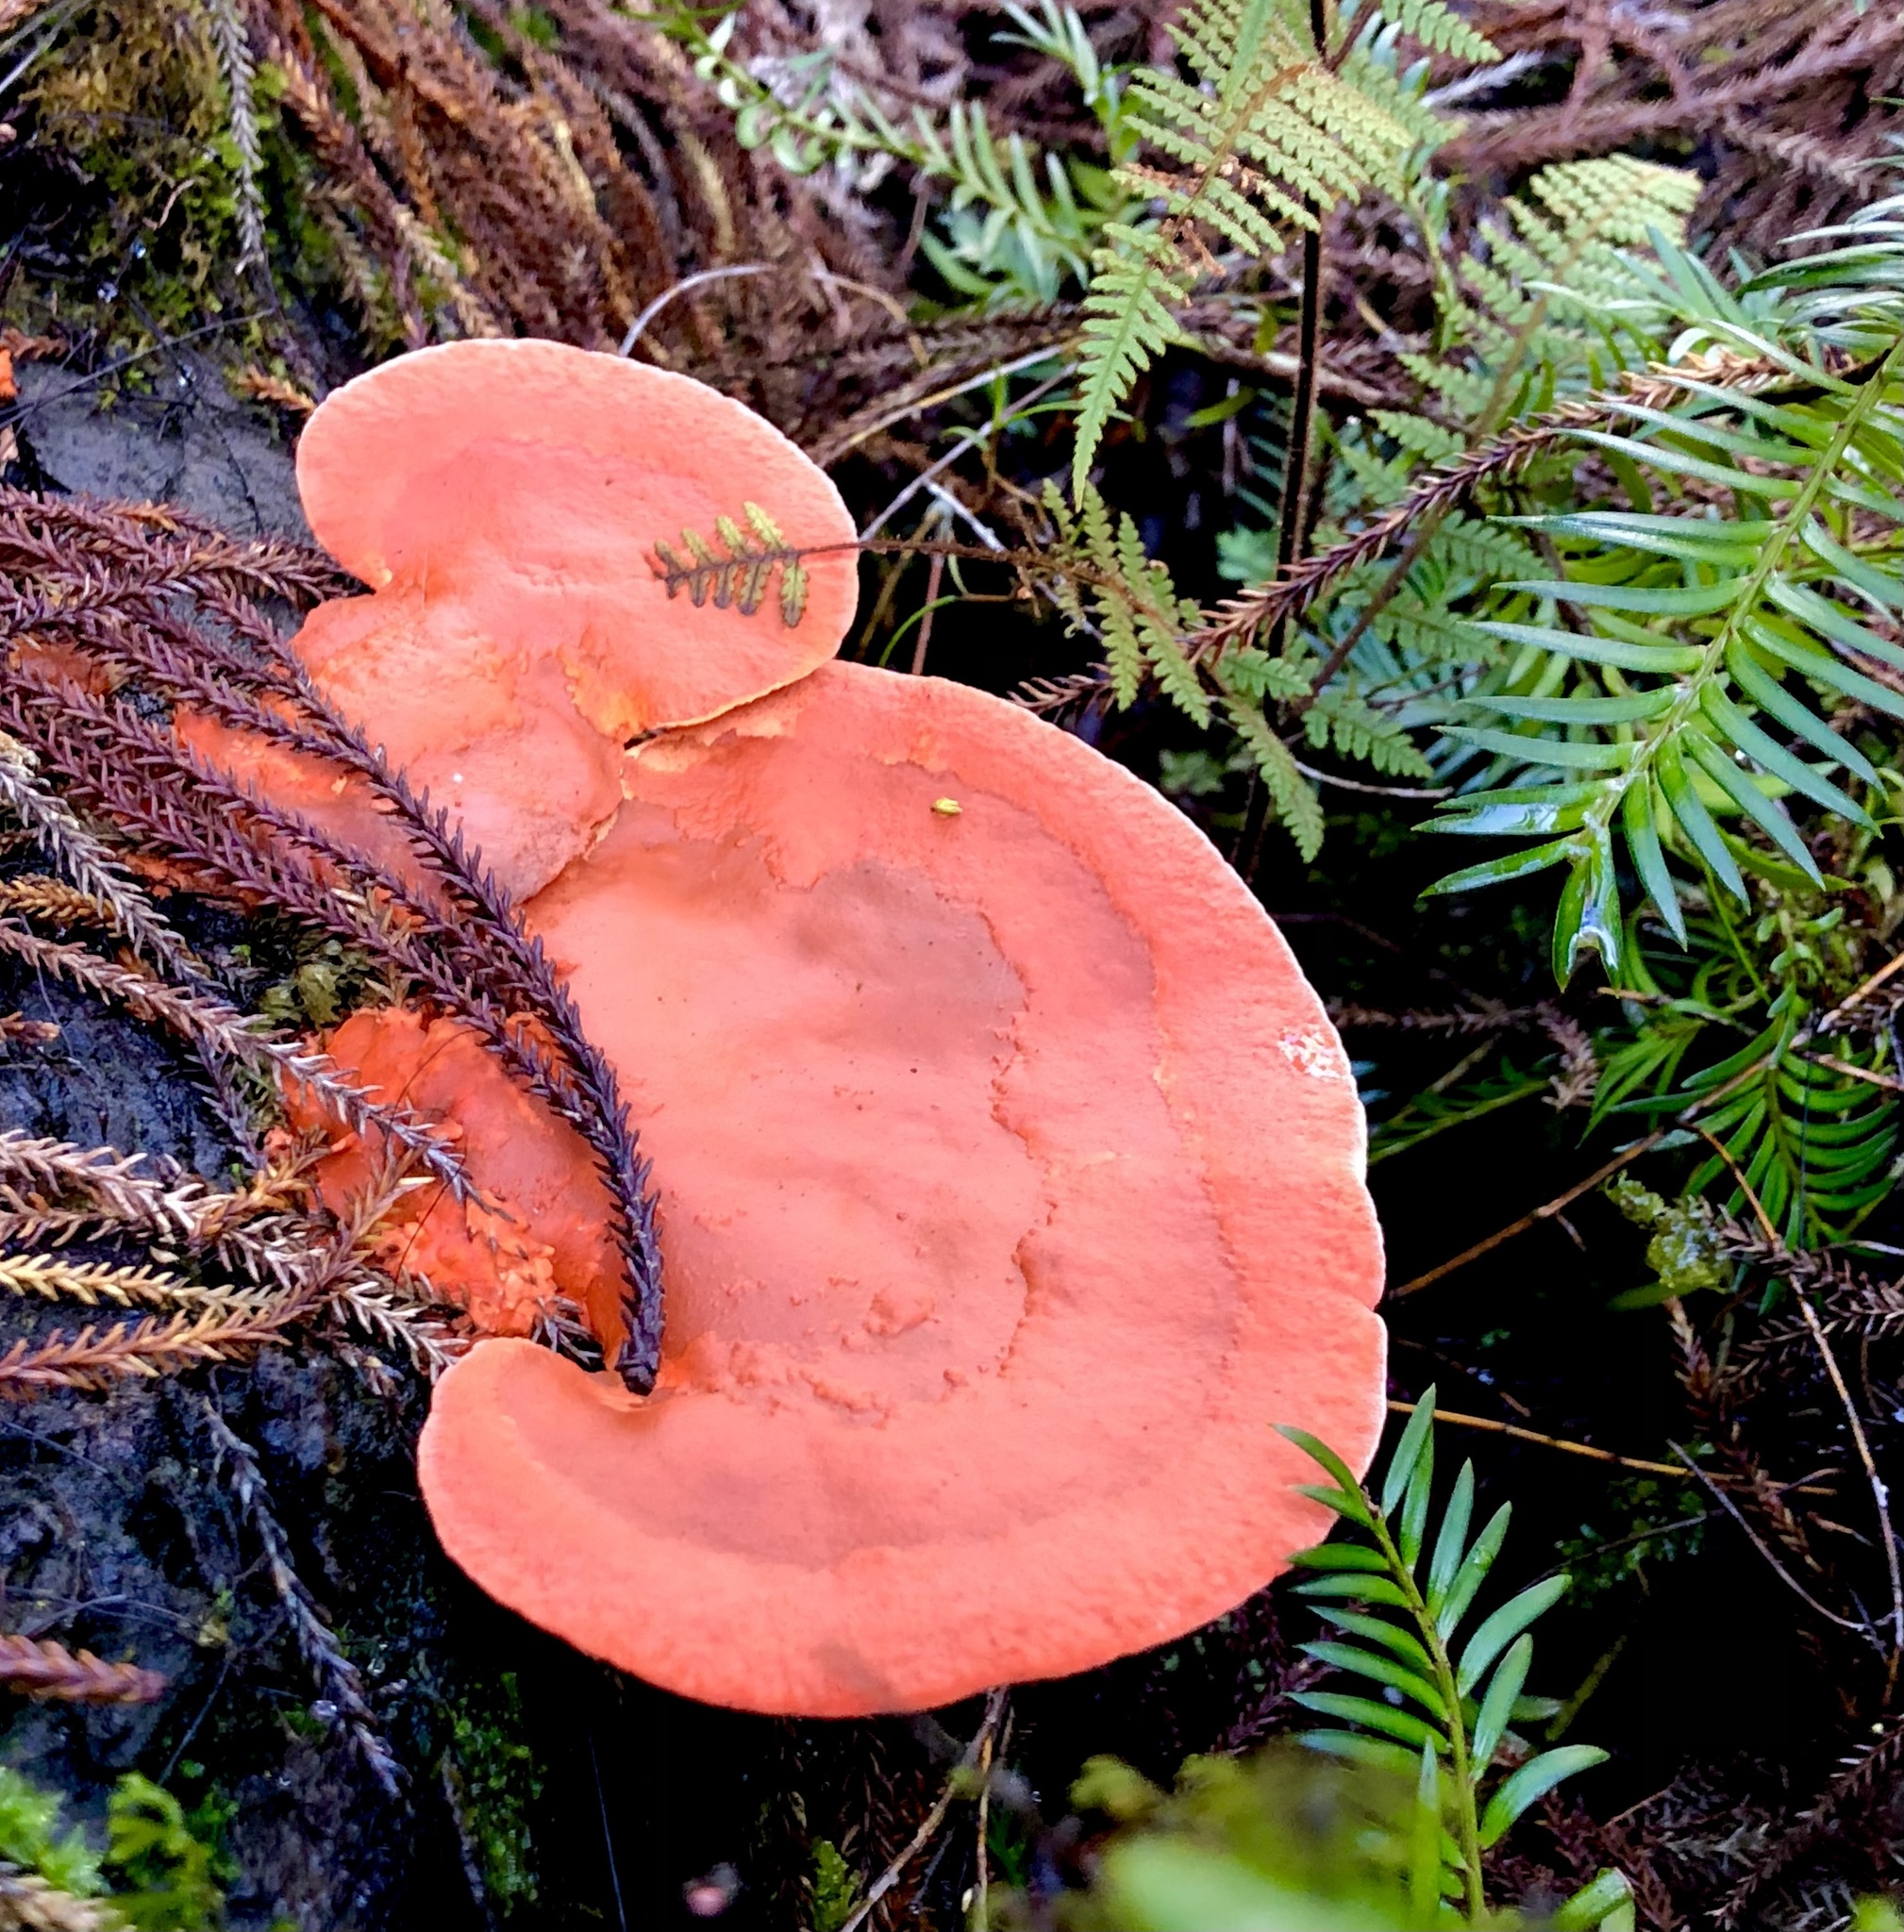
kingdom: Fungi
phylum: Basidiomycota
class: Agaricomycetes
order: Polyporales
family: Polyporaceae
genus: Trametes
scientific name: Trametes coccinea
